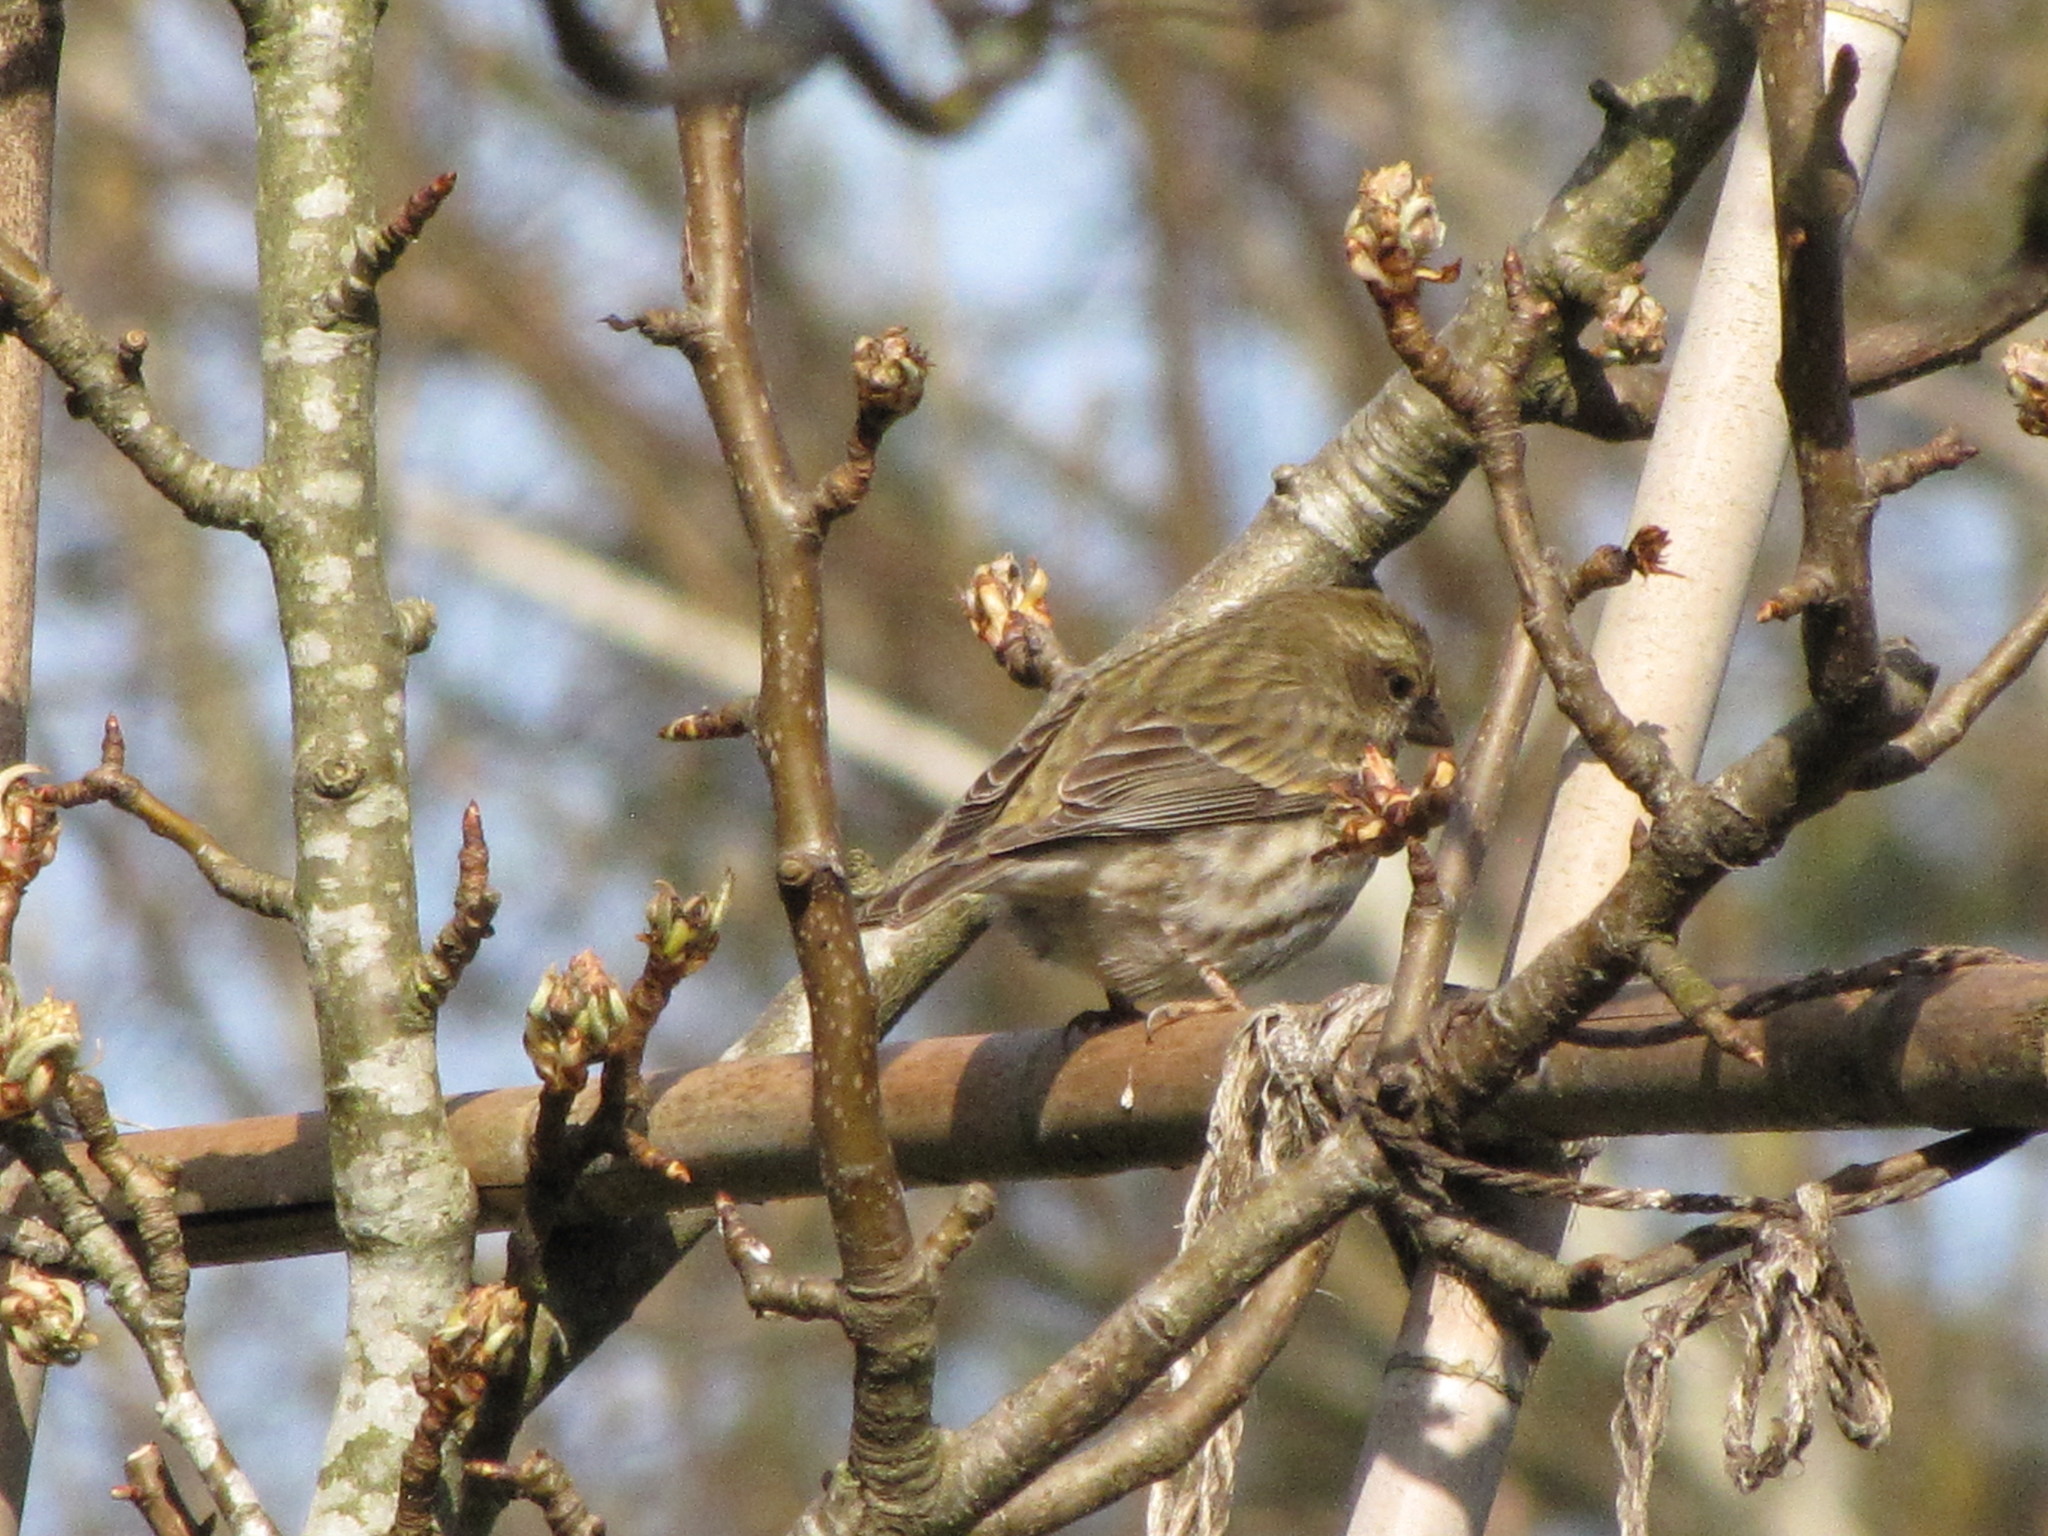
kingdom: Animalia
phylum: Chordata
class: Aves
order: Passeriformes
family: Fringillidae
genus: Haemorhous
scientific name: Haemorhous purpureus
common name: Purple finch
